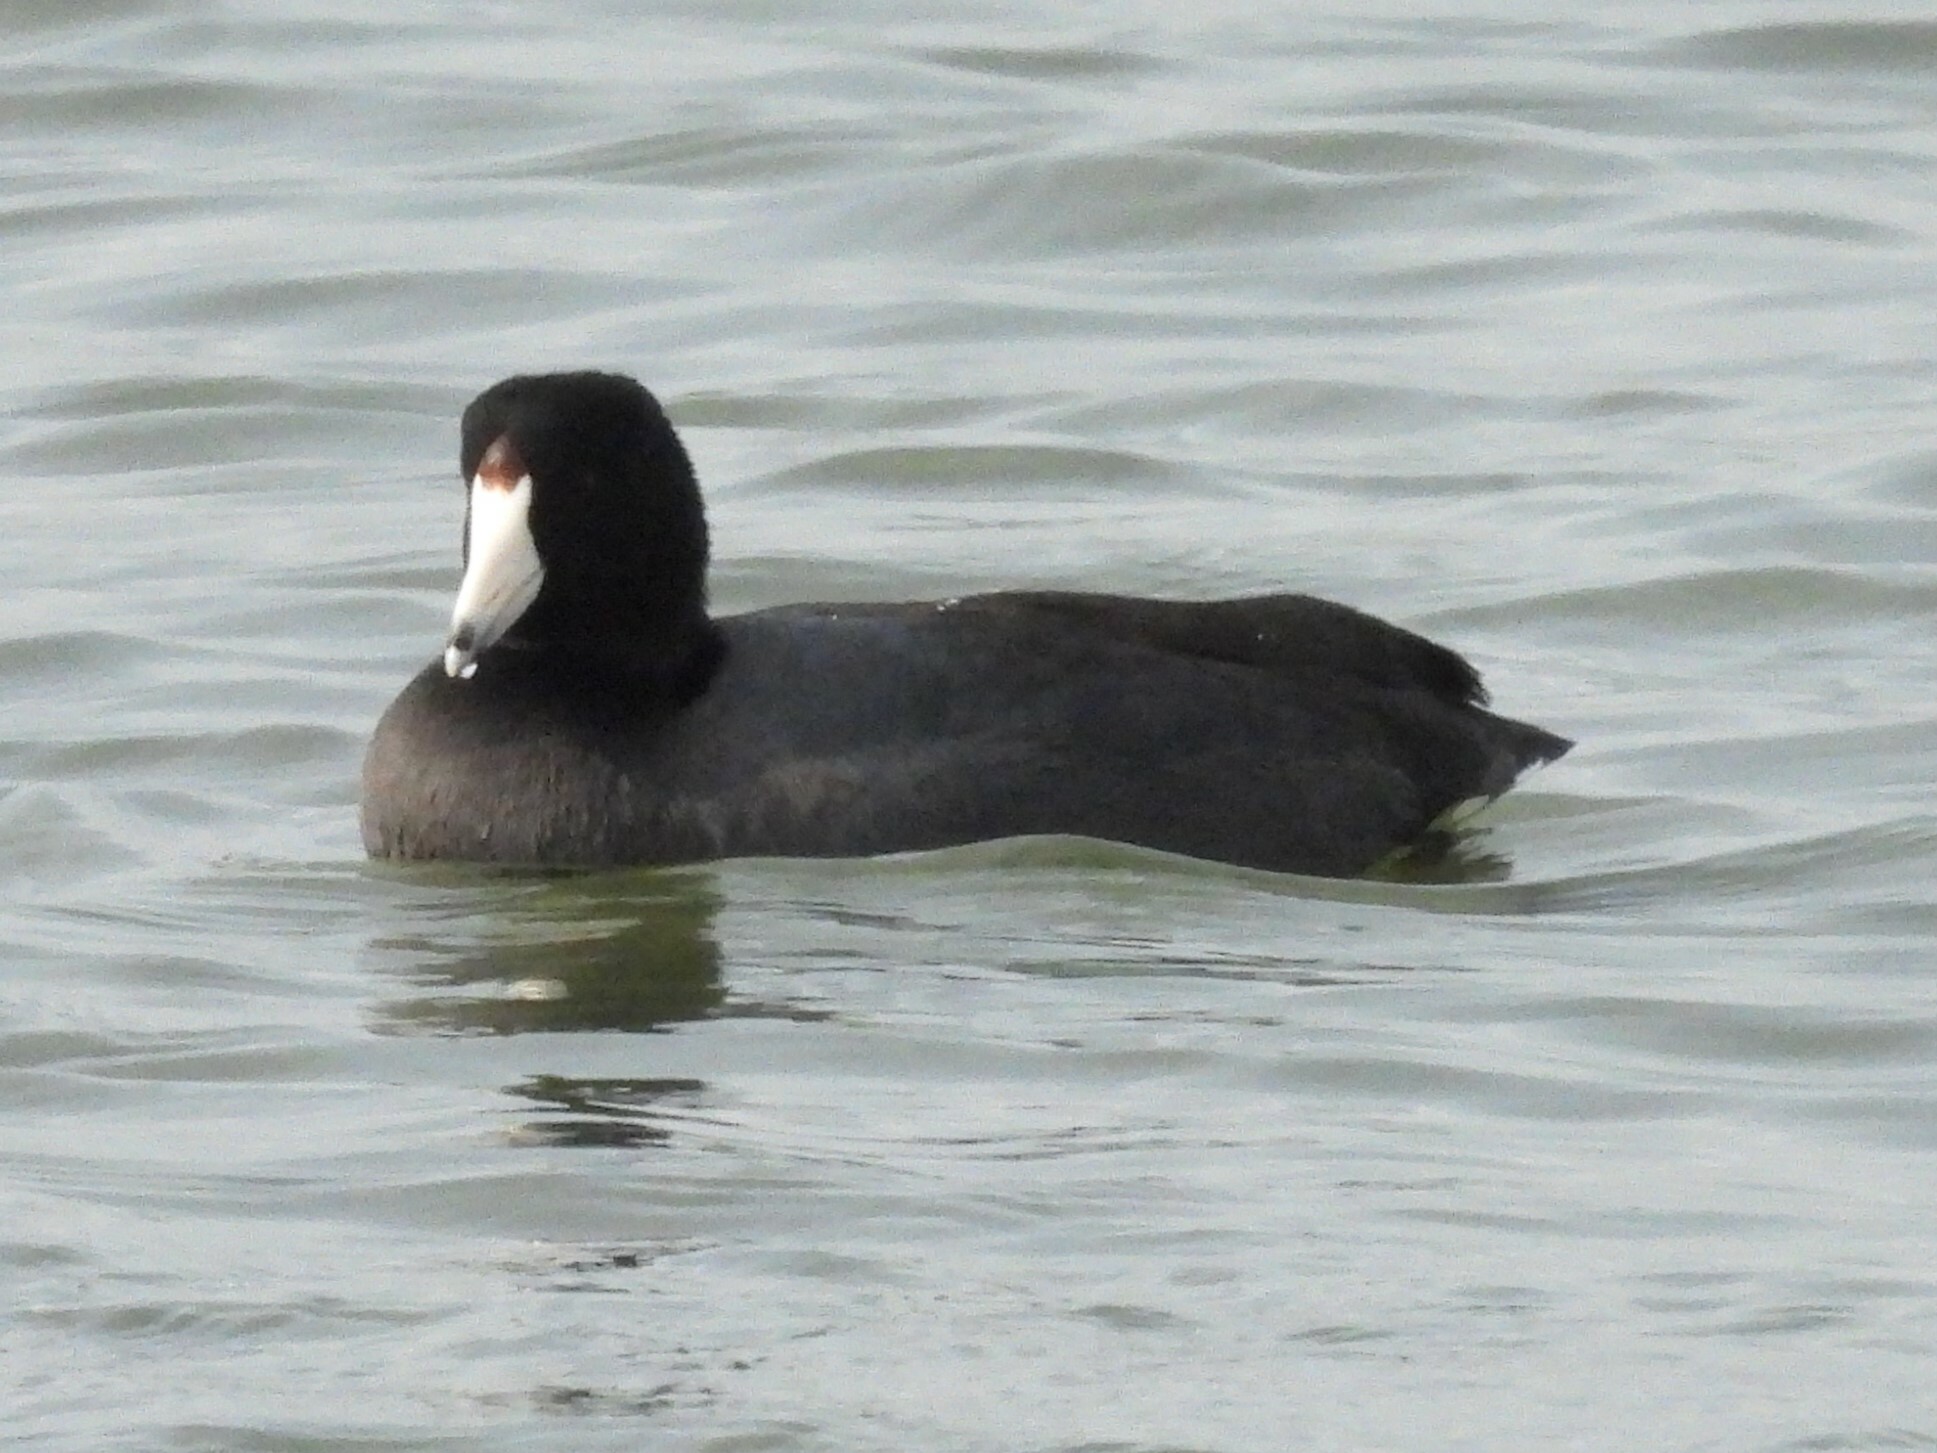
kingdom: Animalia
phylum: Chordata
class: Aves
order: Gruiformes
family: Rallidae
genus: Fulica
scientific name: Fulica americana
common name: American coot
